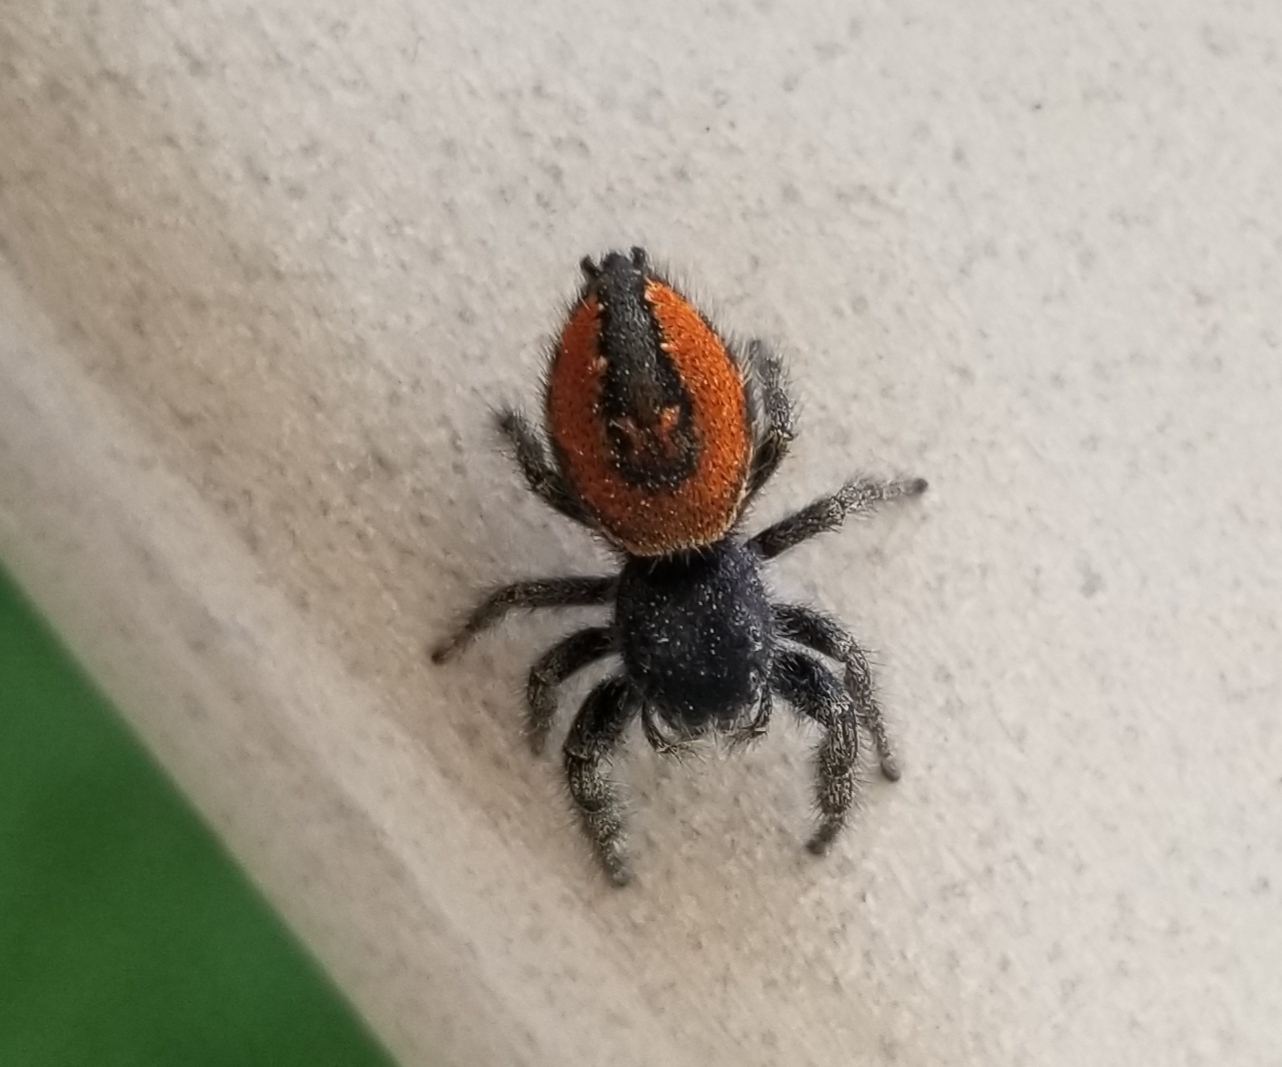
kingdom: Animalia
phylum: Arthropoda
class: Arachnida
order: Araneae
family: Salticidae
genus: Phidippus
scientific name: Phidippus johnsoni
